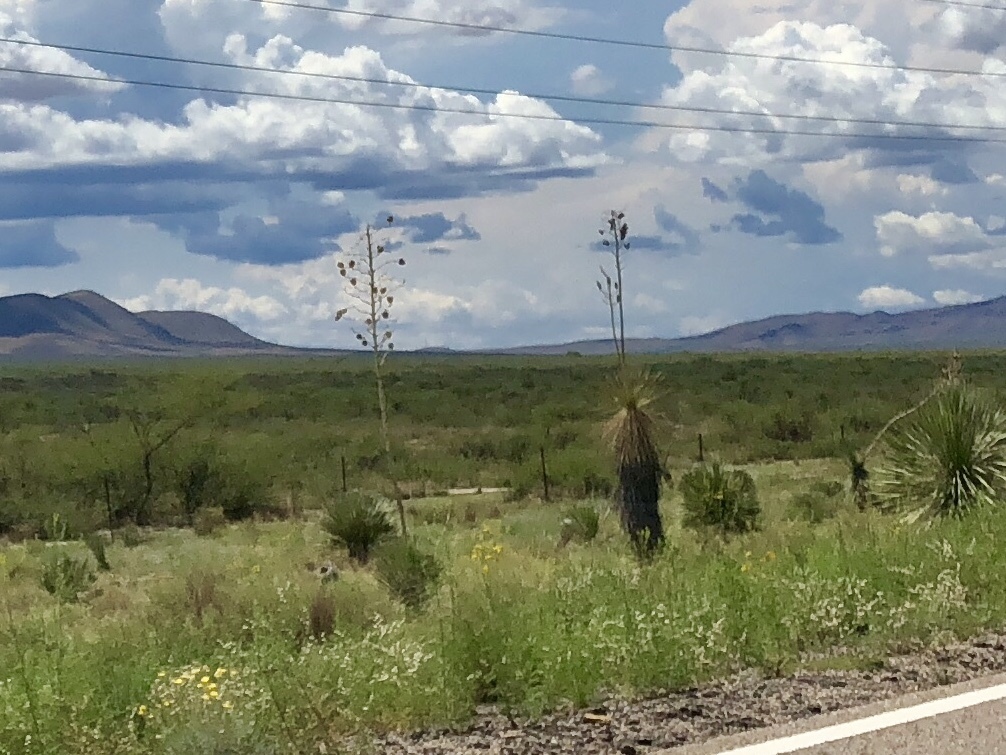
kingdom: Plantae
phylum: Tracheophyta
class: Liliopsida
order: Asparagales
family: Asparagaceae
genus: Yucca
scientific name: Yucca elata
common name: Palmella
